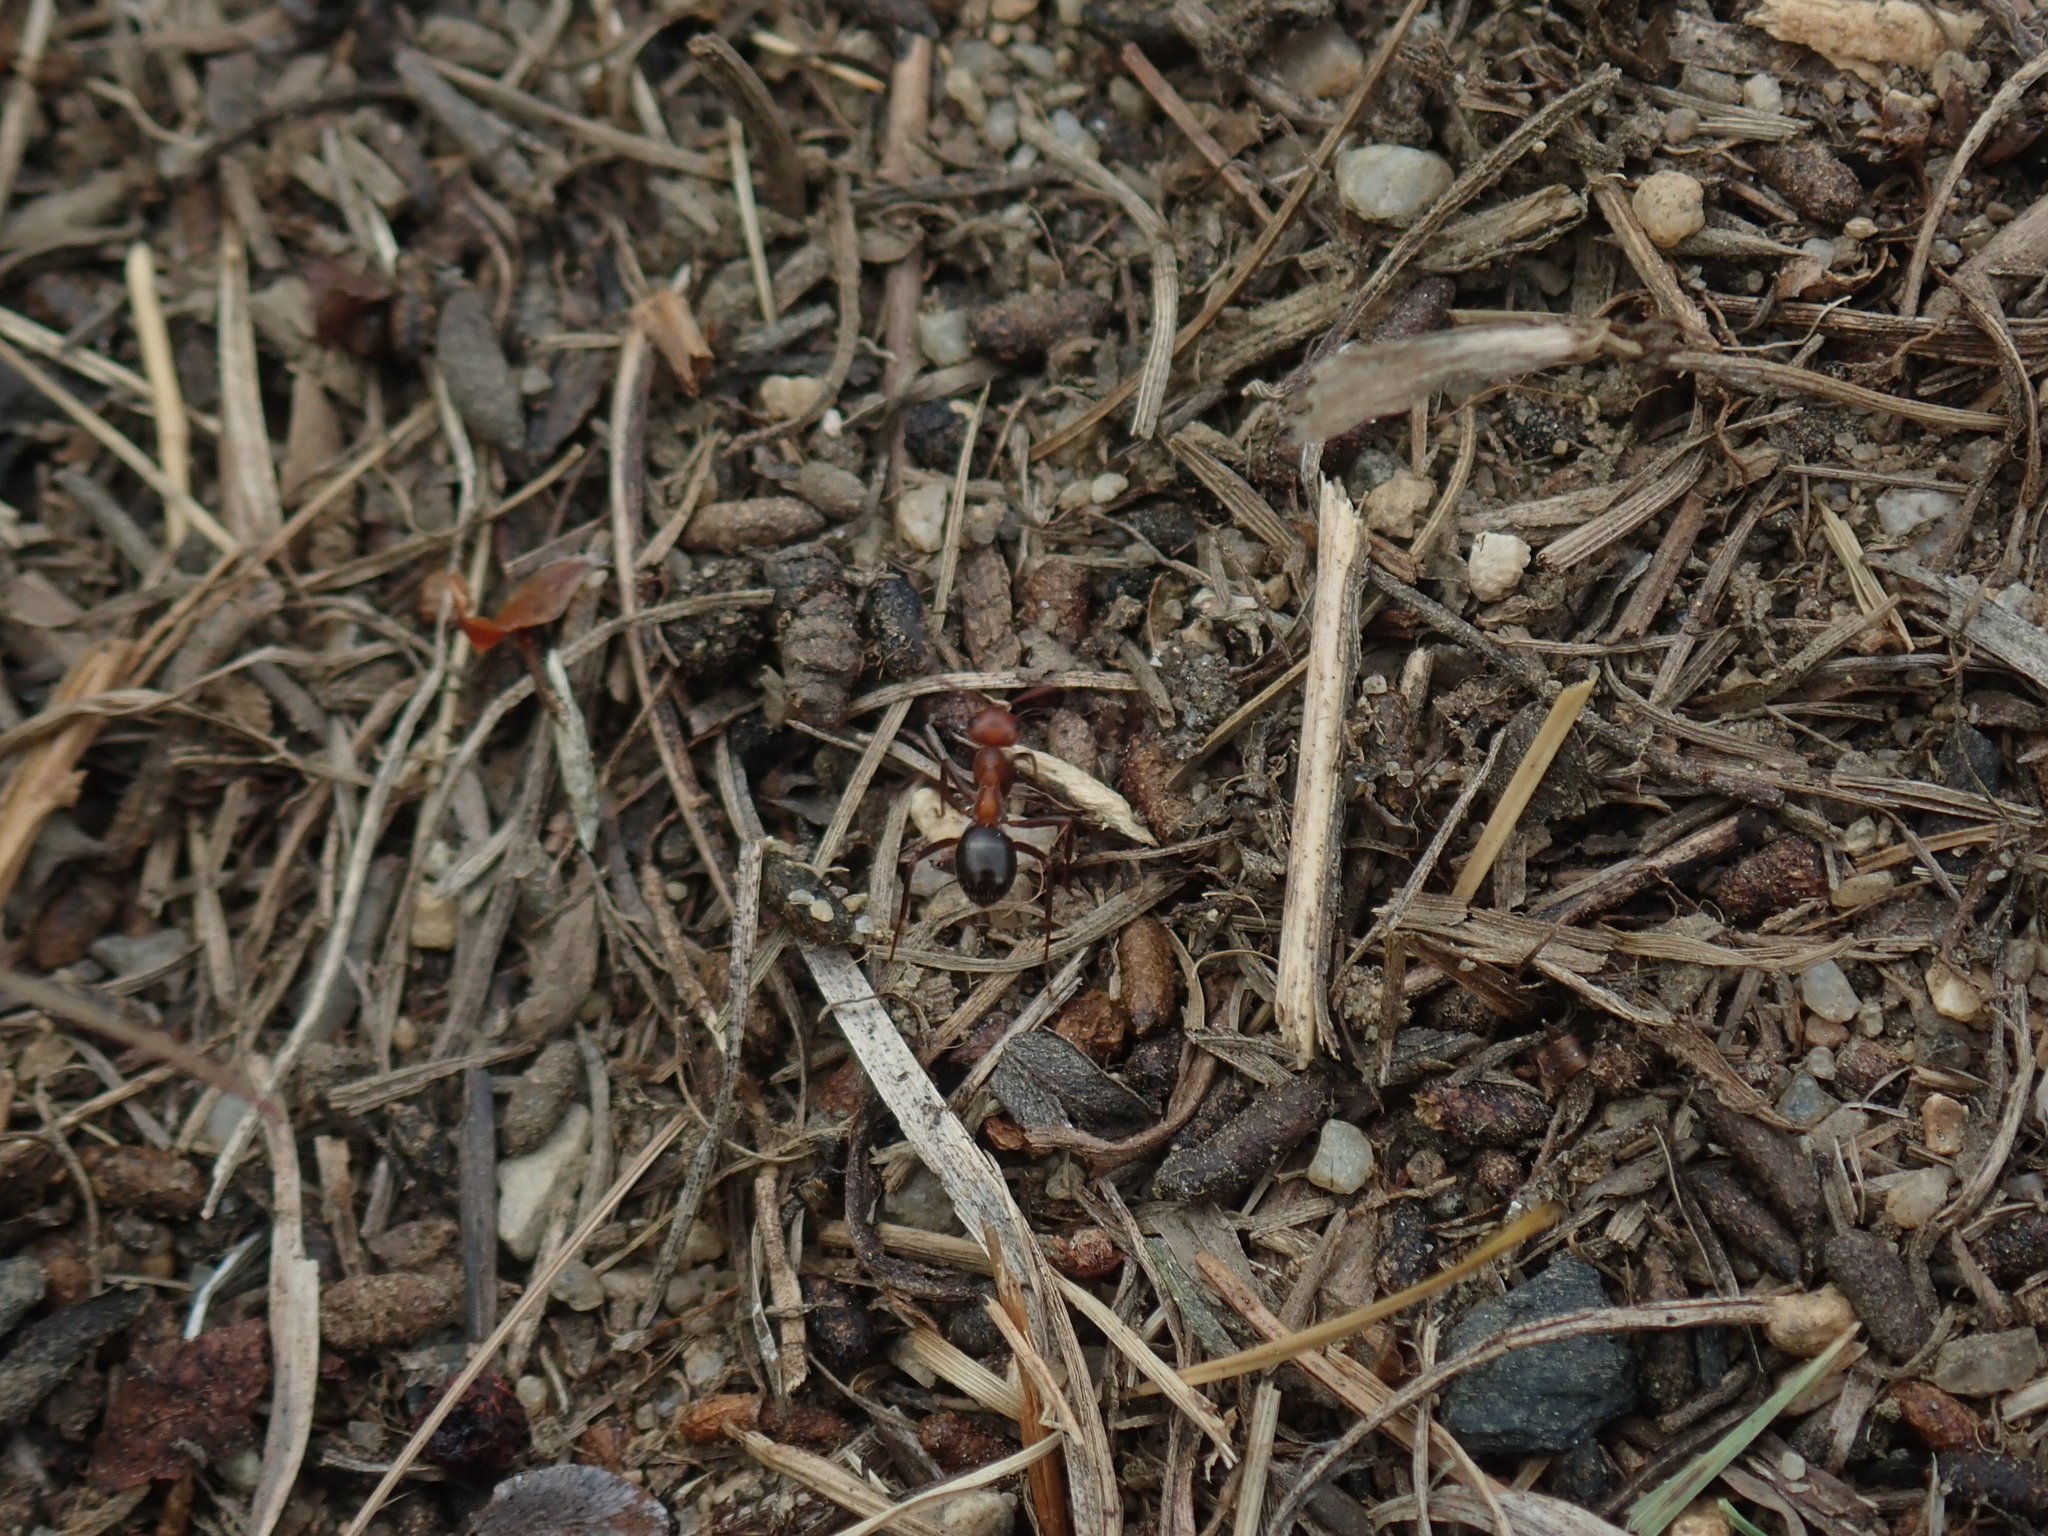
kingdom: Animalia
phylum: Arthropoda
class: Insecta
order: Hymenoptera
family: Formicidae
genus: Formica
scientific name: Formica exsectoides
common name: Allegheny mound ant
